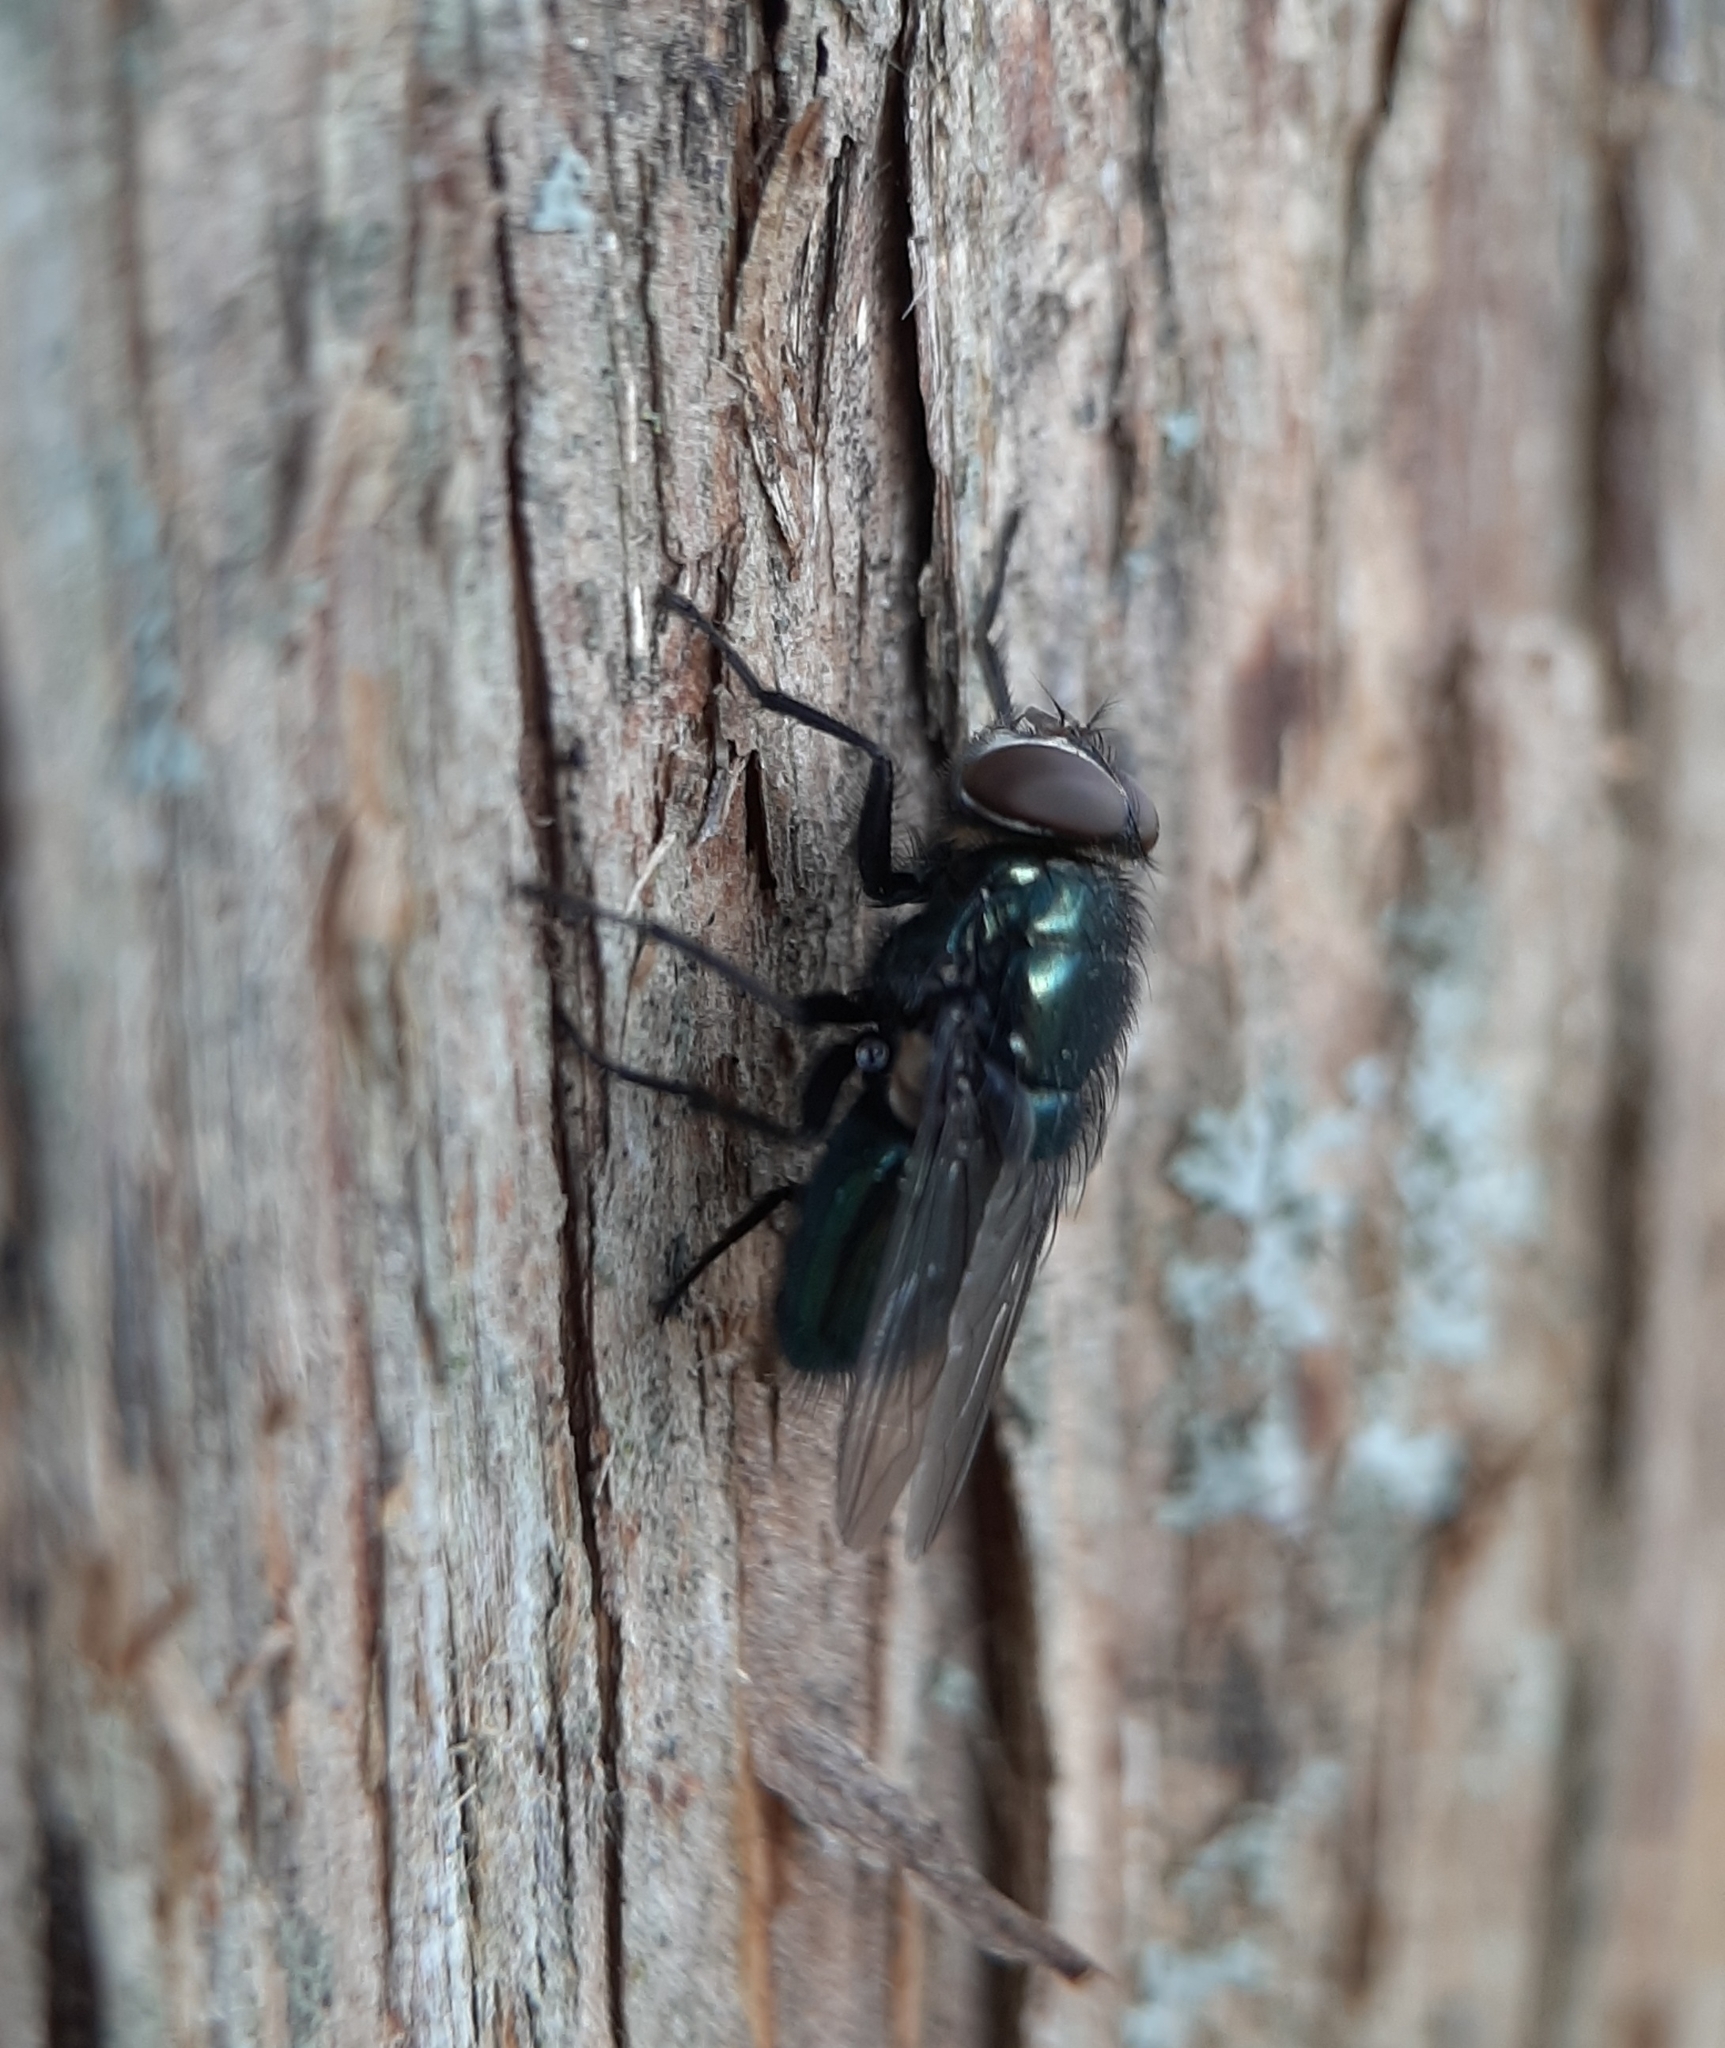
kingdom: Animalia
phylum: Arthropoda
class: Insecta
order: Diptera
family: Calliphoridae
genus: Phormia
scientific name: Phormia regina
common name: Black blow fly
